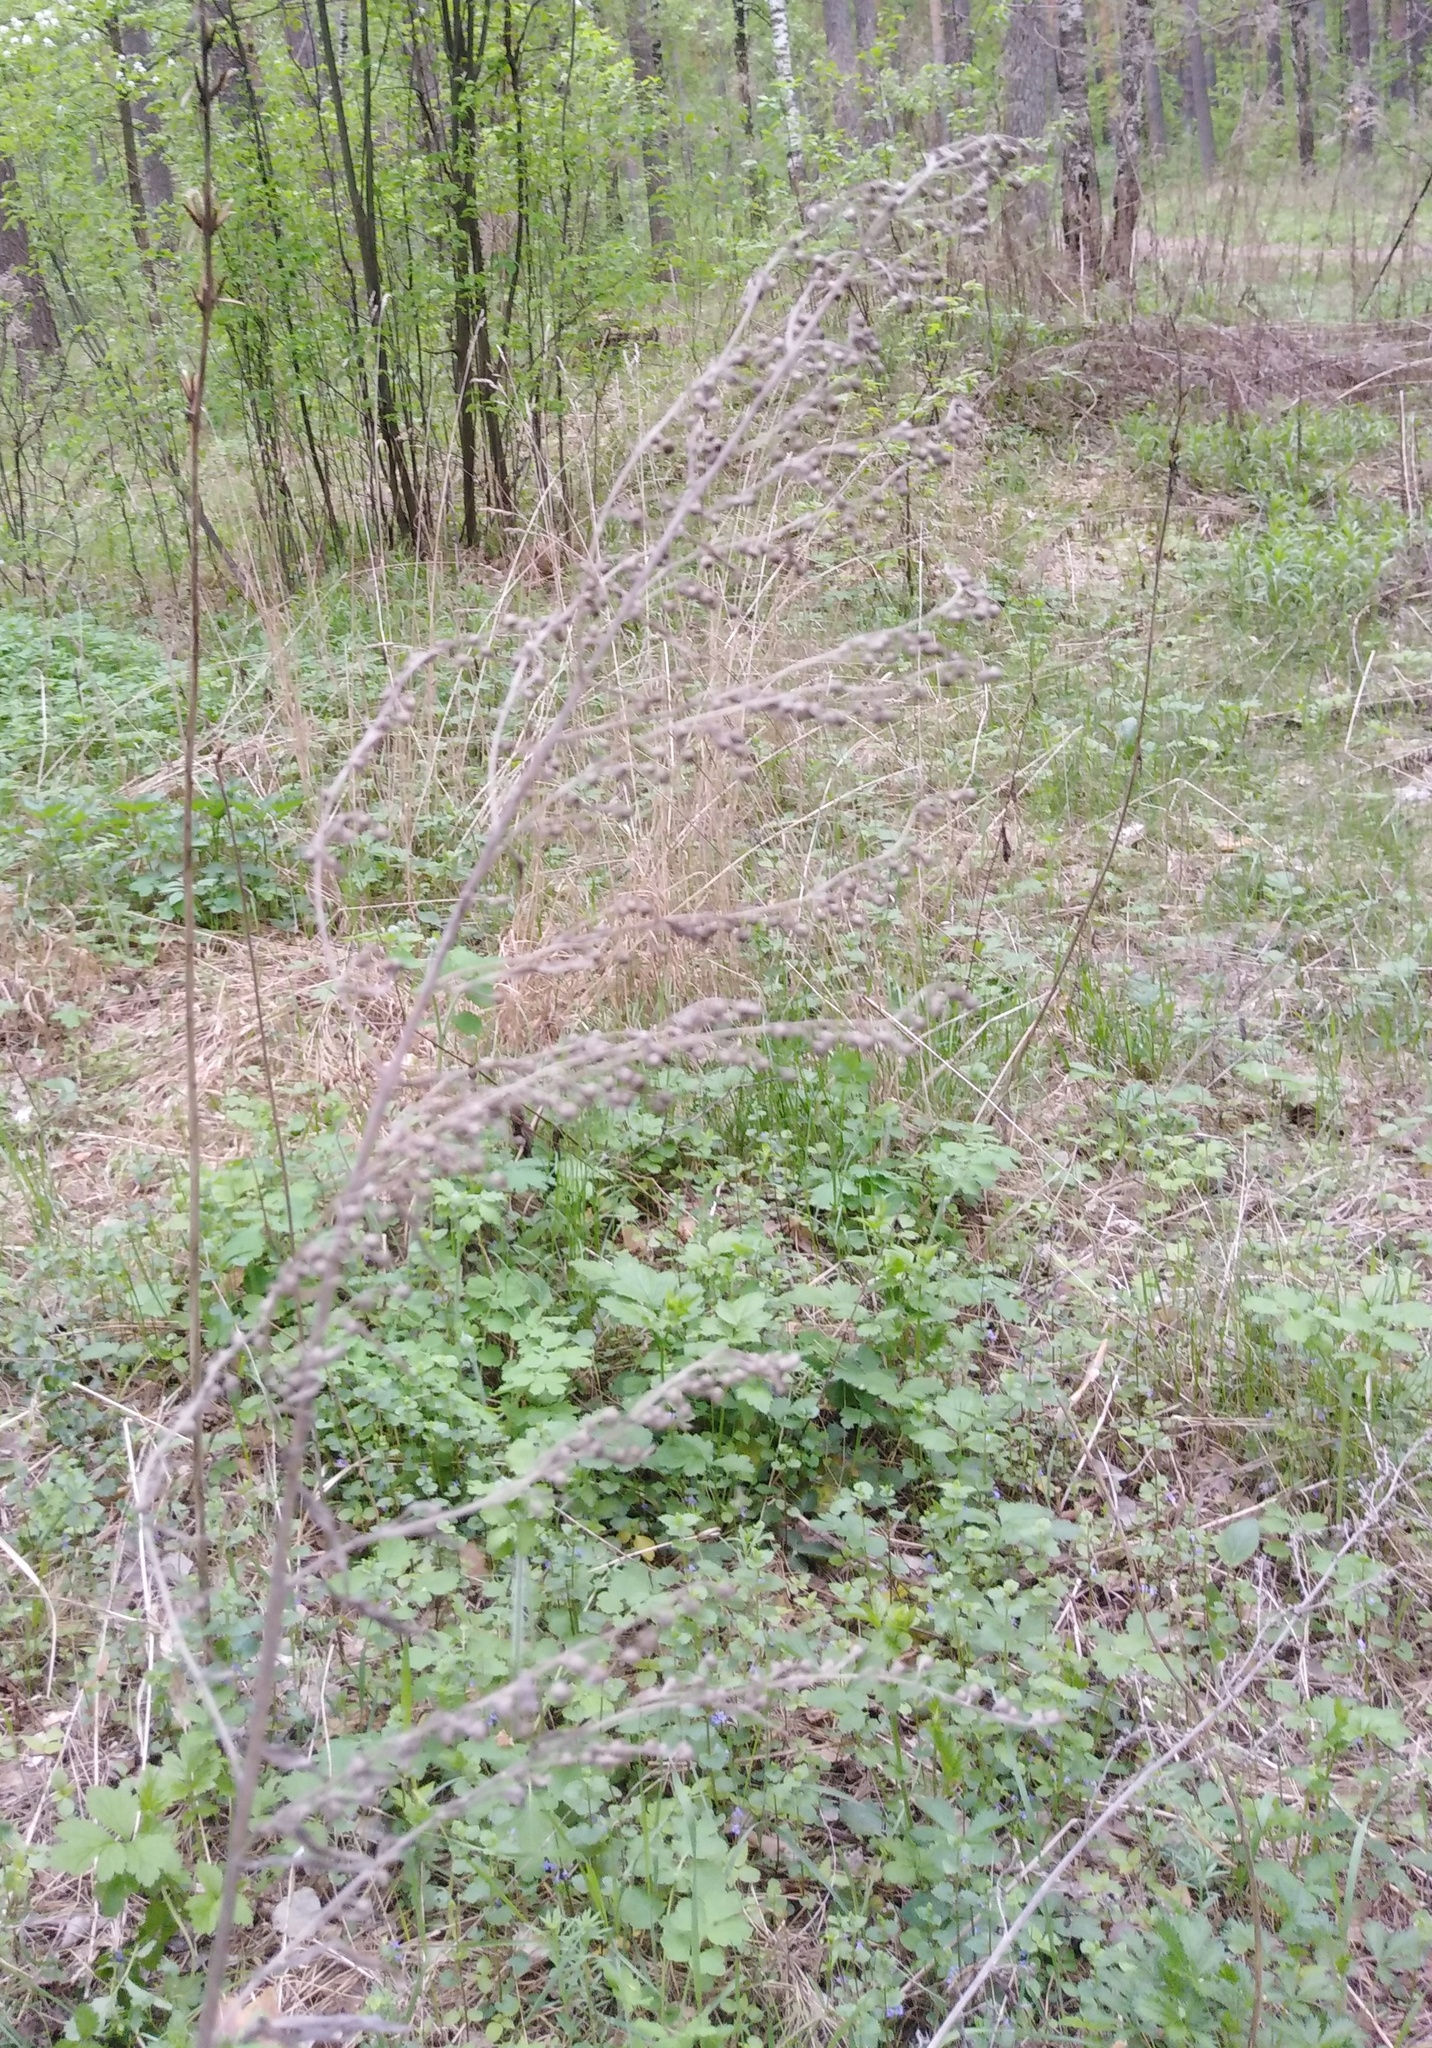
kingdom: Plantae
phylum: Tracheophyta
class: Magnoliopsida
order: Asterales
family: Asteraceae
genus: Artemisia
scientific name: Artemisia absinthium
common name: Wormwood
